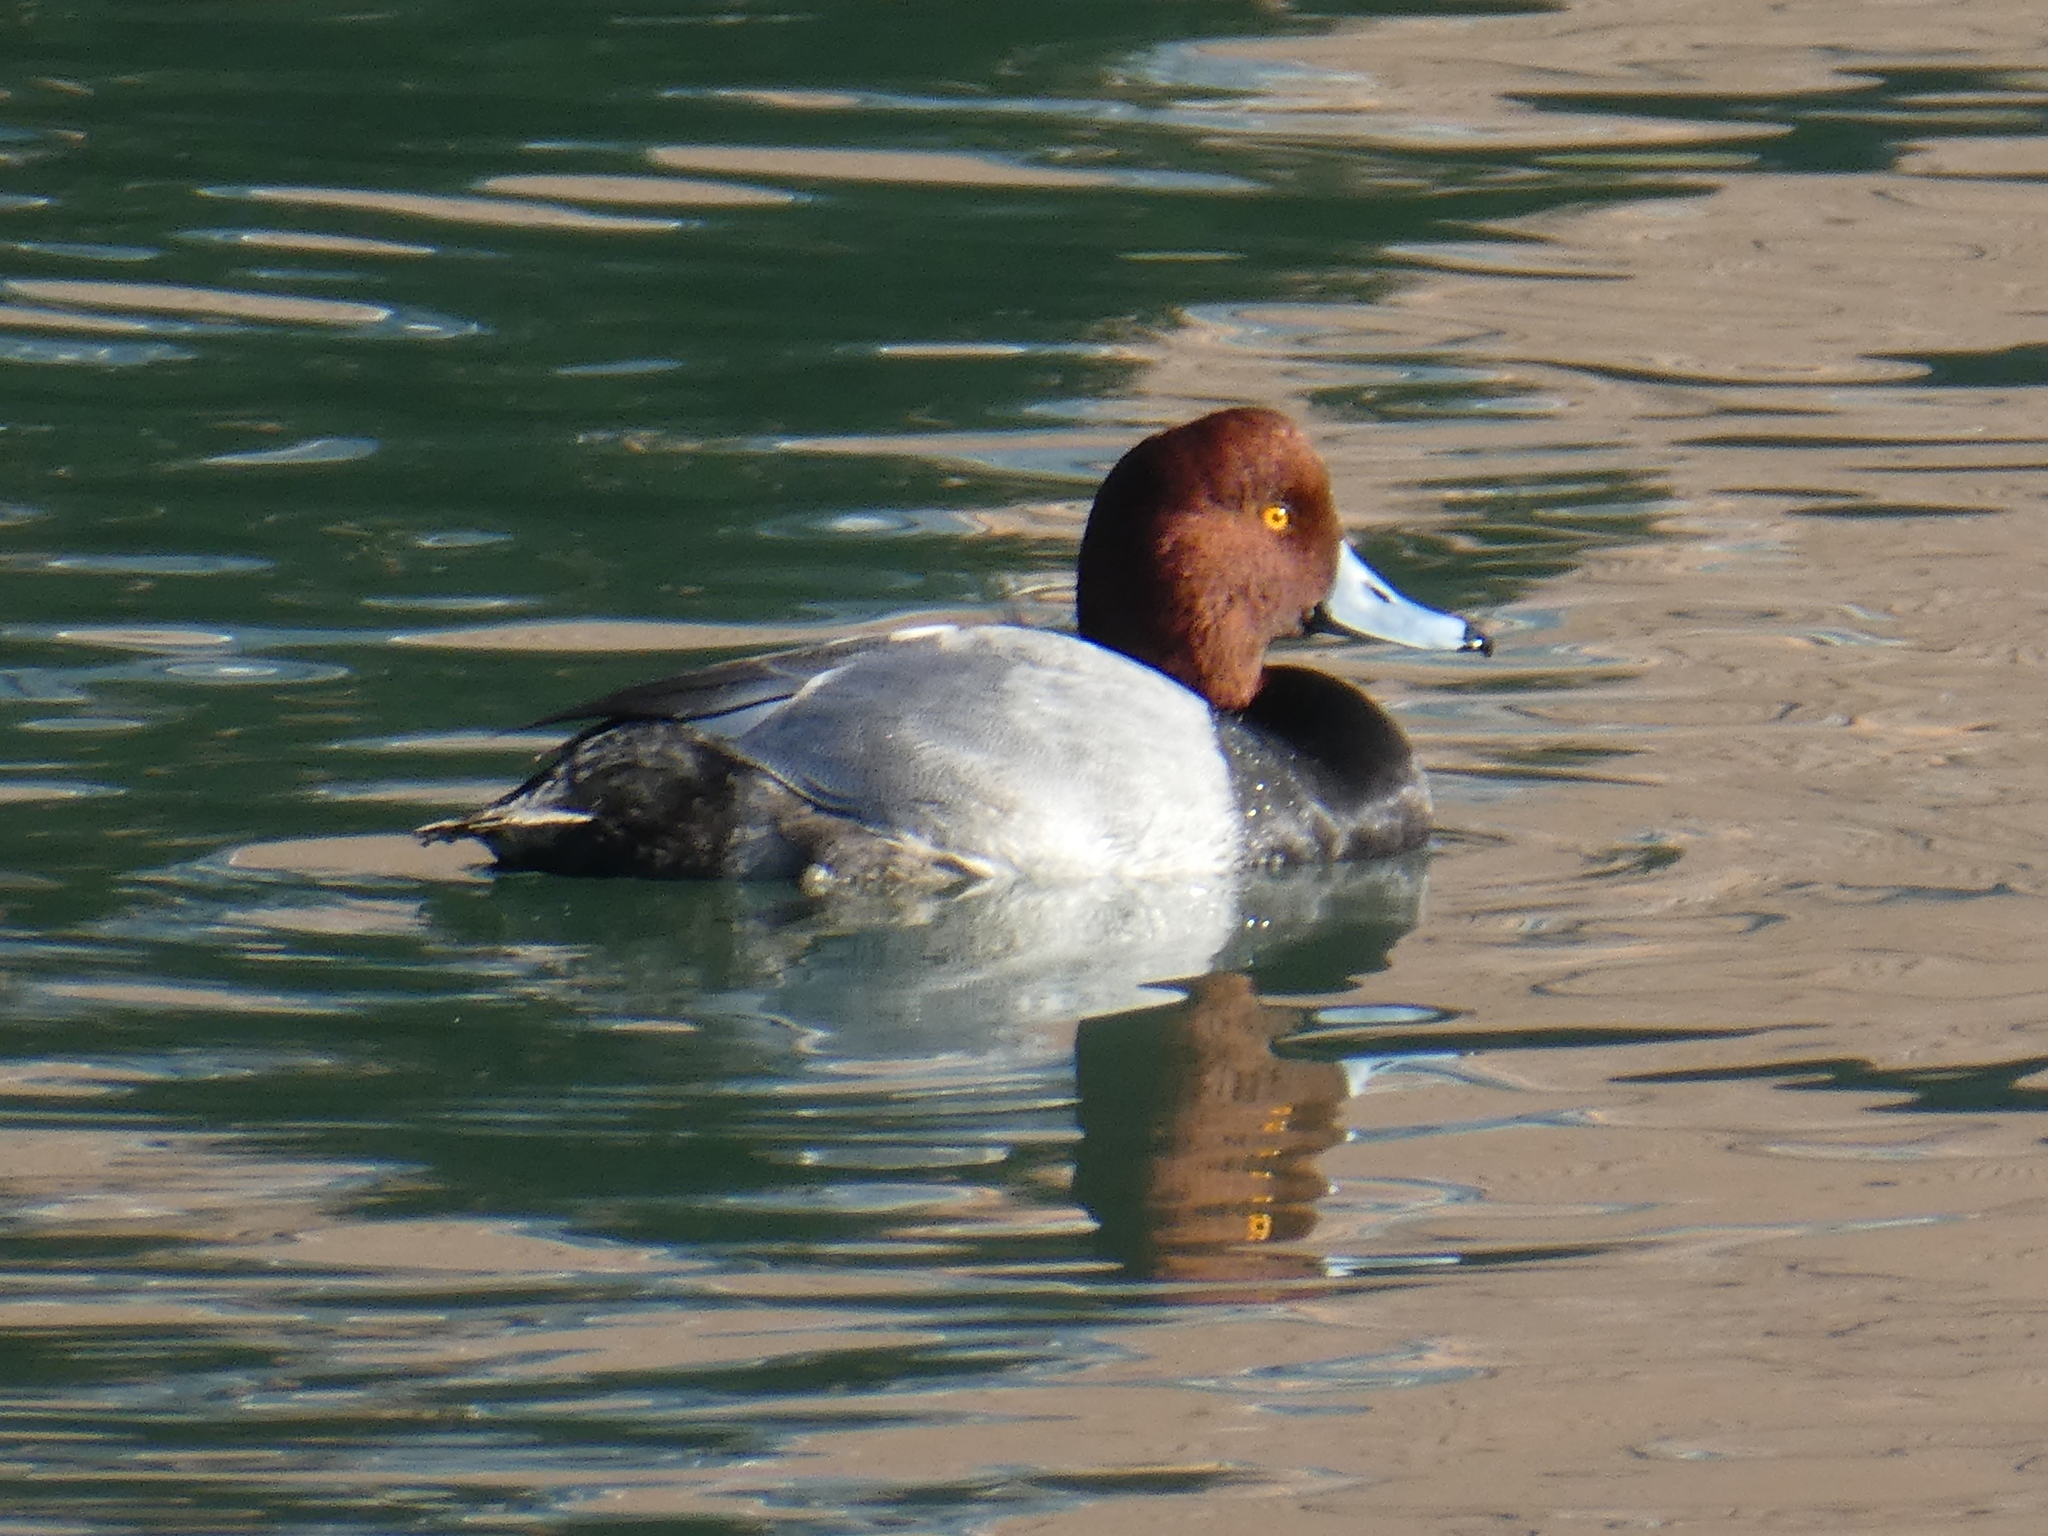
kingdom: Animalia
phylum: Chordata
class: Aves
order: Anseriformes
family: Anatidae
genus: Aythya
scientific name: Aythya americana
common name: Redhead
